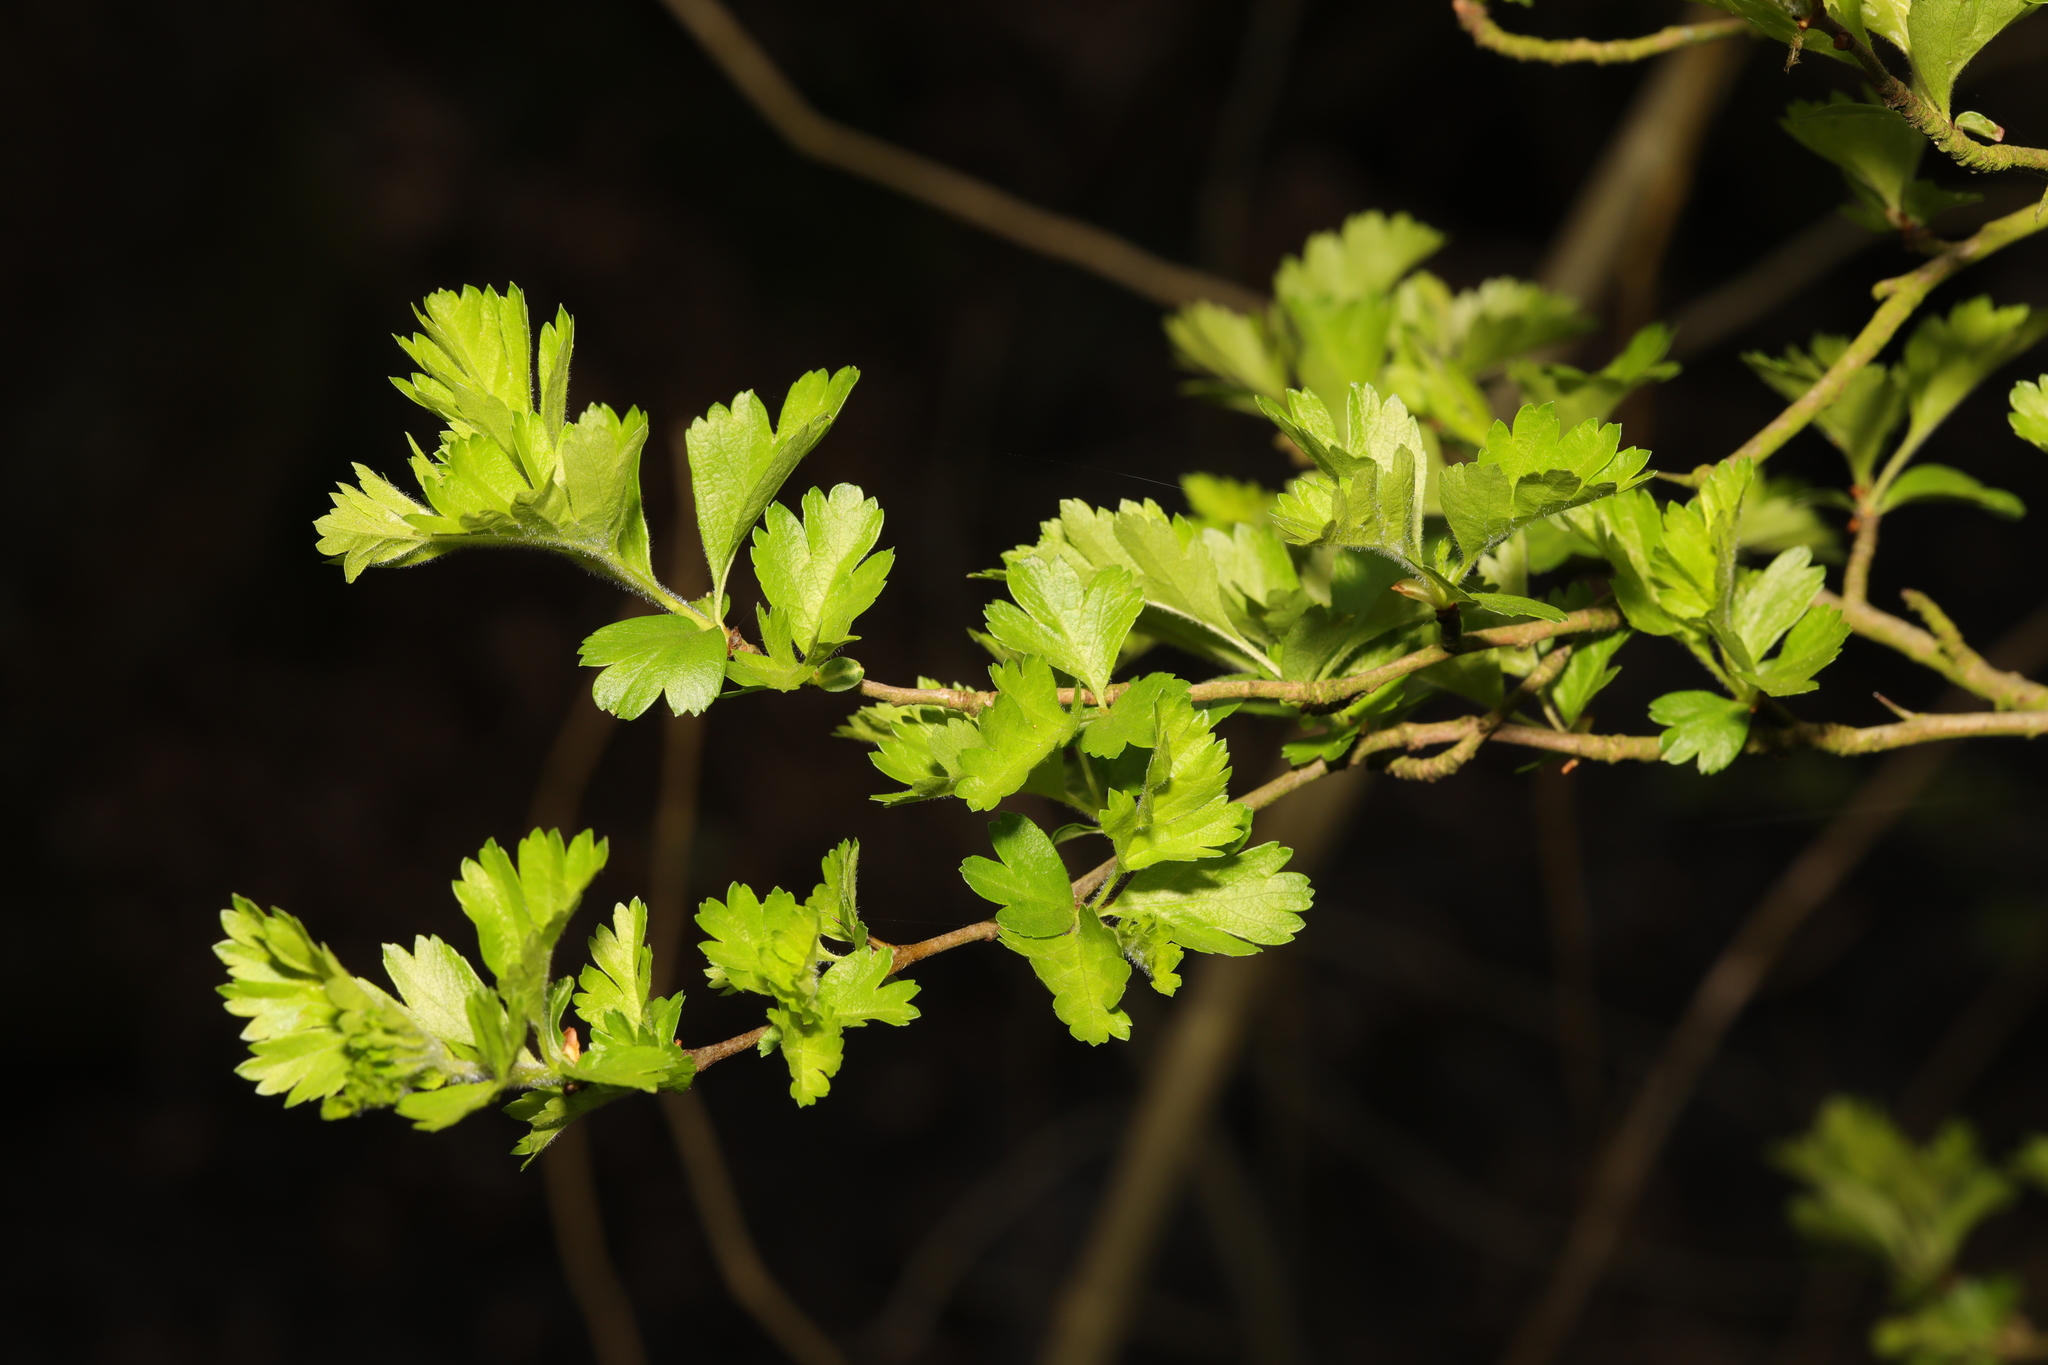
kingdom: Plantae
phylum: Tracheophyta
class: Magnoliopsida
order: Rosales
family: Rosaceae
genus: Crataegus
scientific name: Crataegus monogyna
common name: Hawthorn
